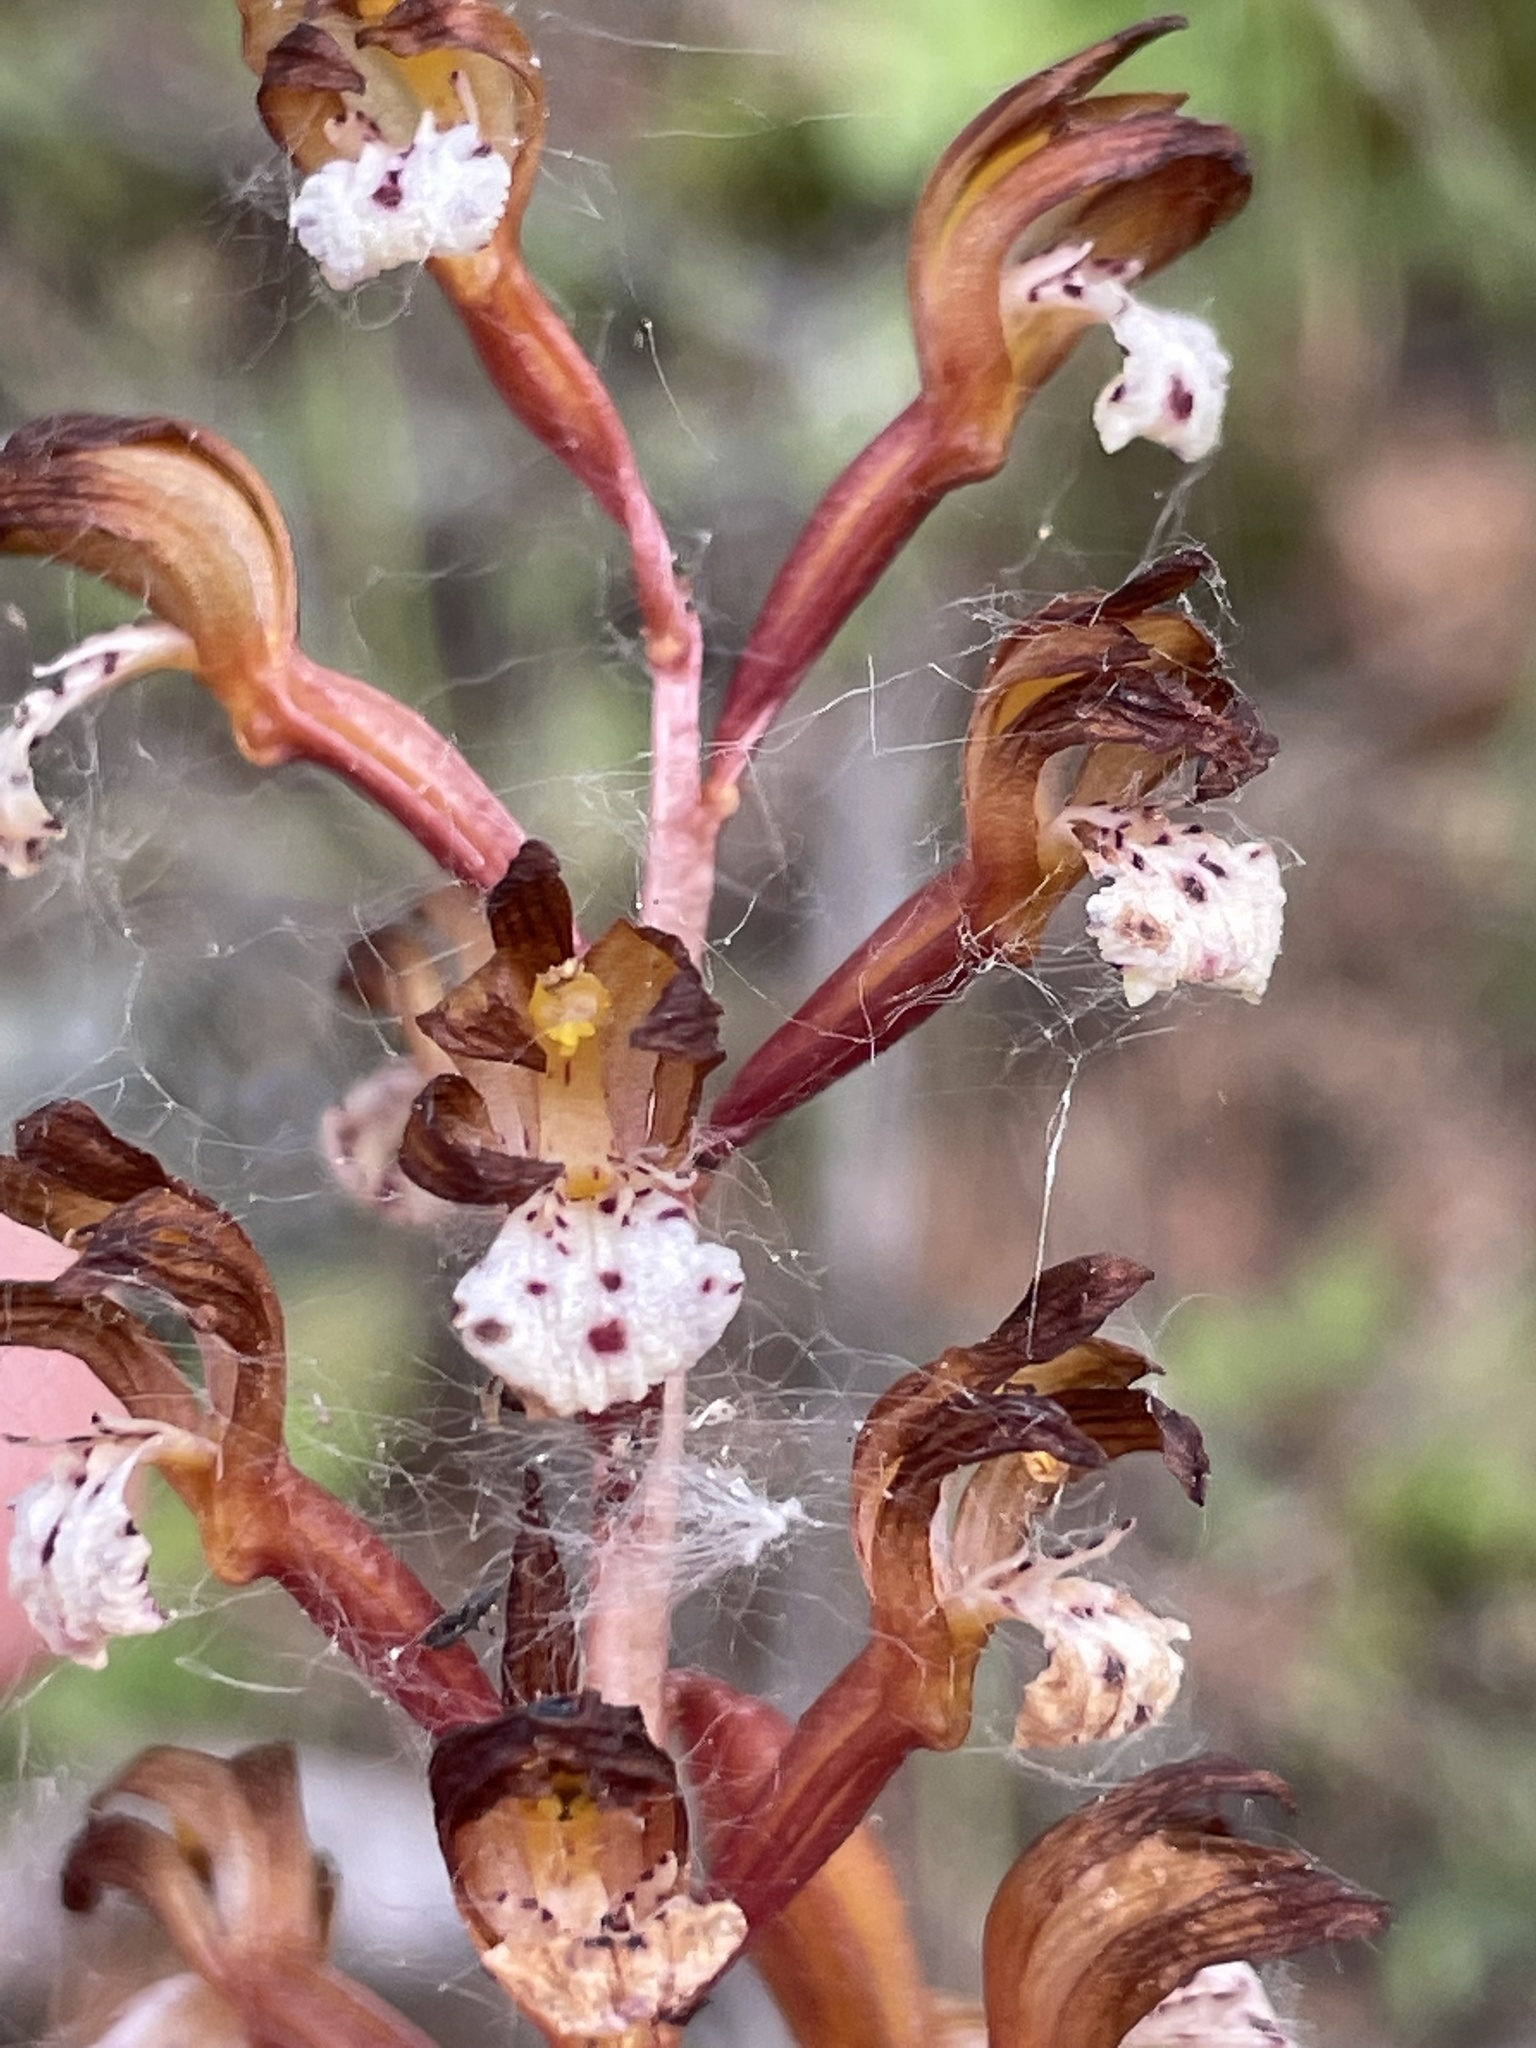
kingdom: Plantae
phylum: Tracheophyta
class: Liliopsida
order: Asparagales
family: Orchidaceae
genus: Corallorhiza
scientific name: Corallorhiza maculata
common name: Spotted coralroot
